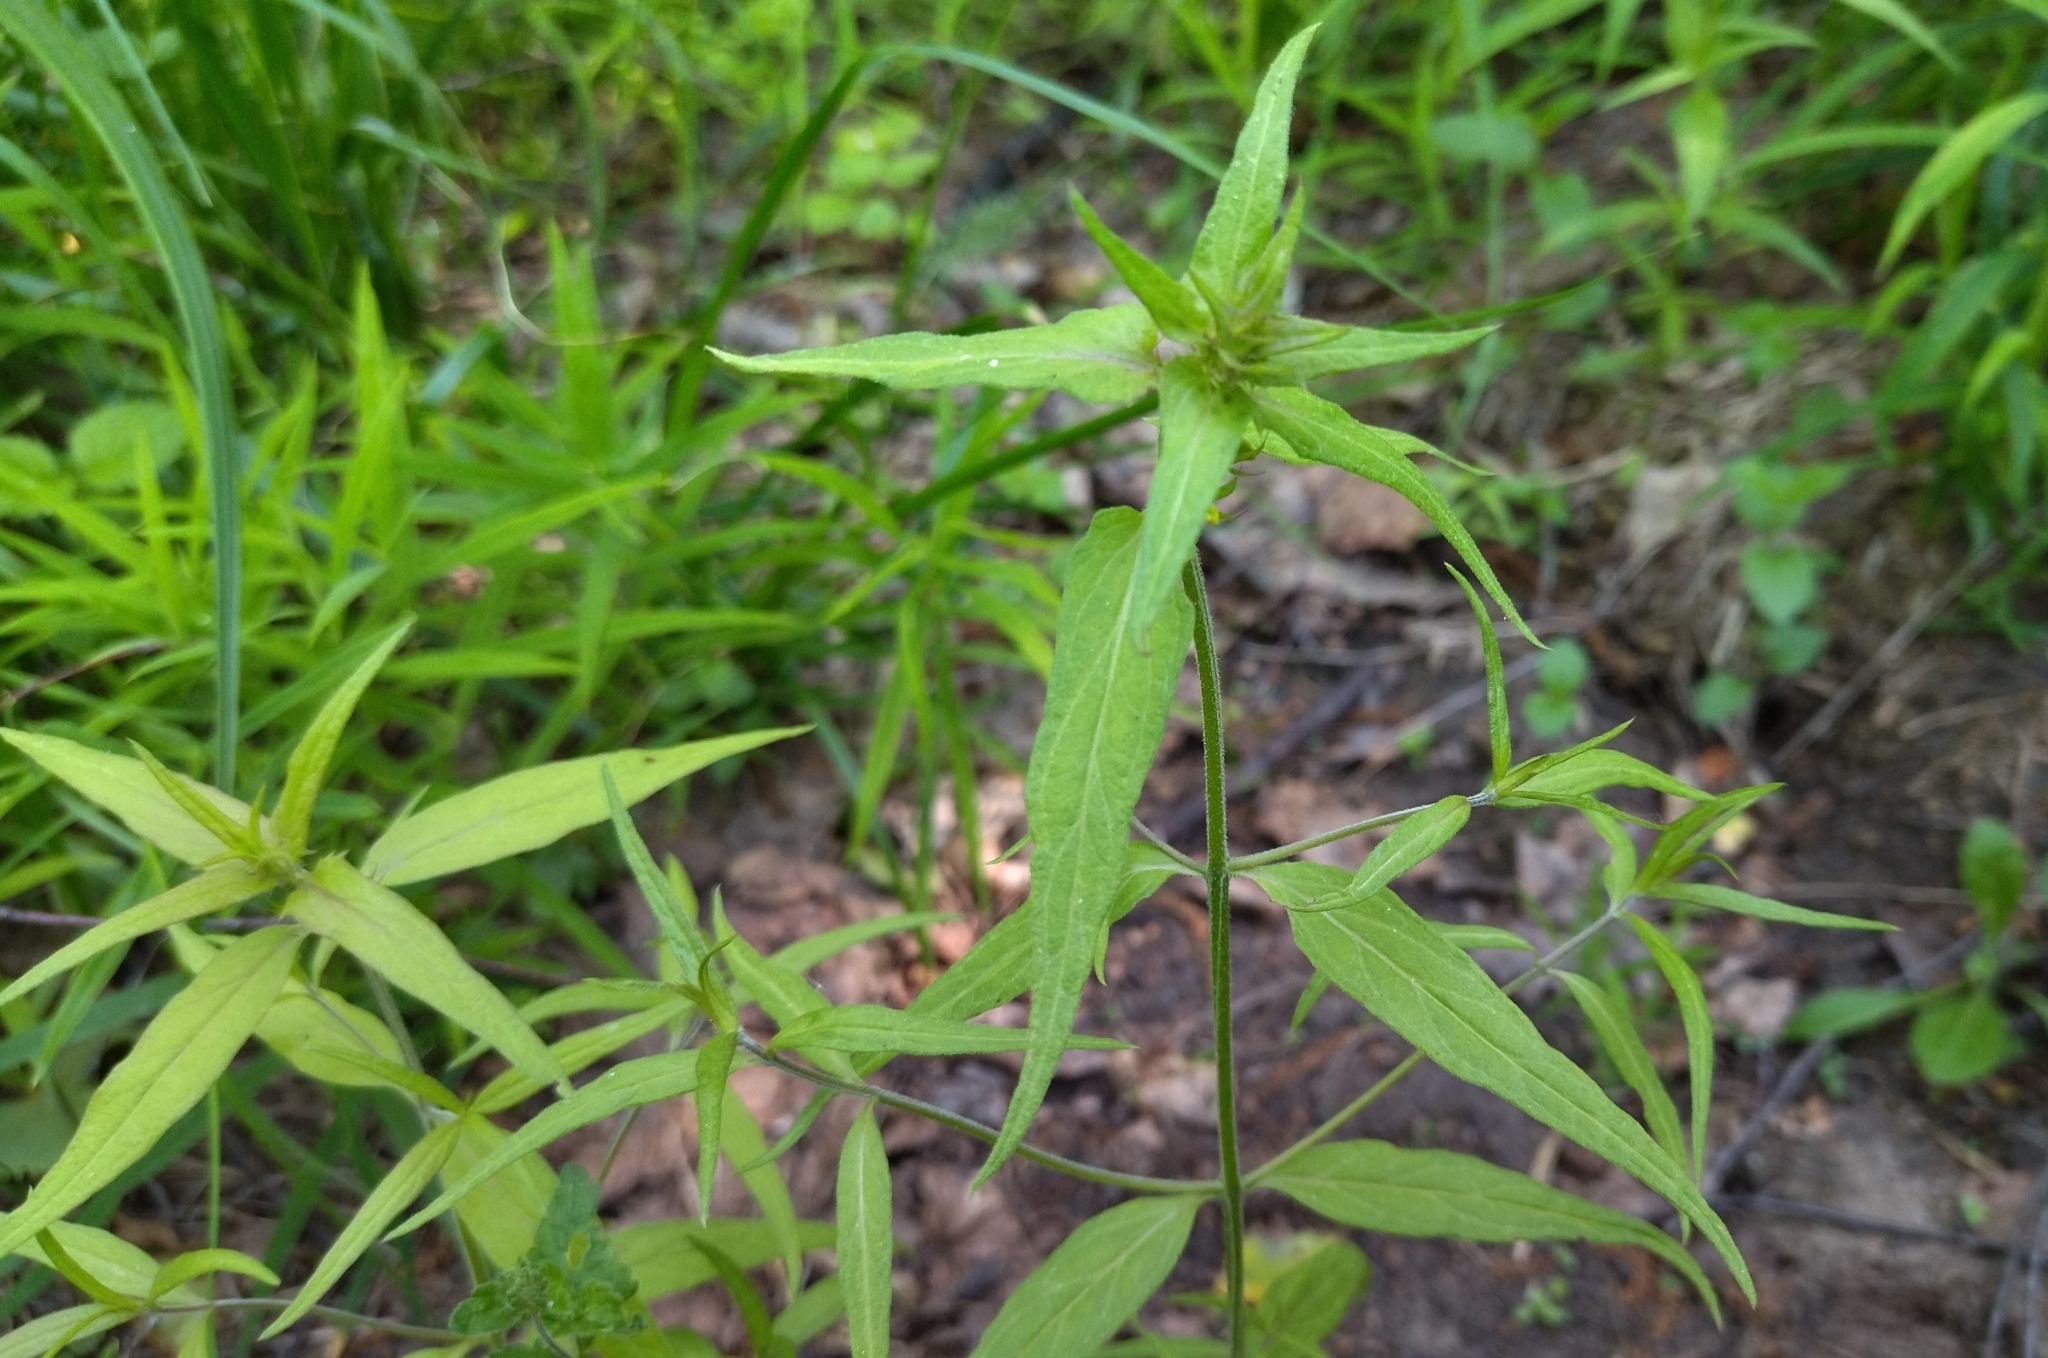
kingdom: Plantae
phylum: Tracheophyta
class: Magnoliopsida
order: Lamiales
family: Orobanchaceae
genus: Melampyrum
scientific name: Melampyrum nemorosum
